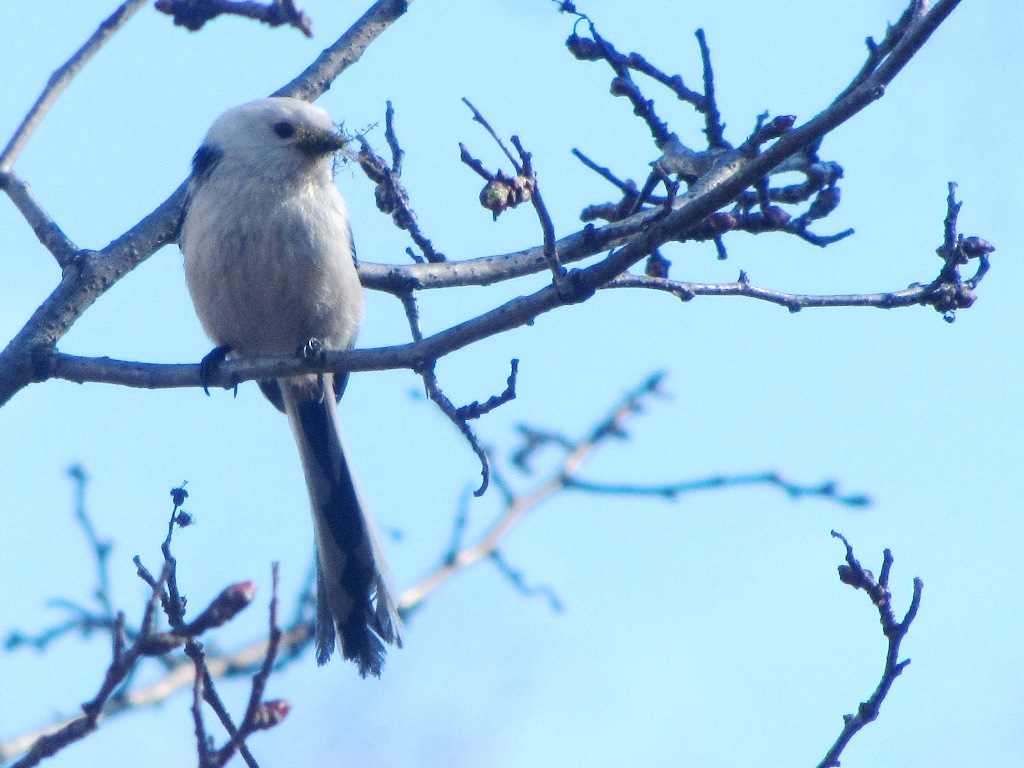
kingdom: Animalia
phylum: Chordata
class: Aves
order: Passeriformes
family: Aegithalidae
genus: Aegithalos
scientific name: Aegithalos caudatus
